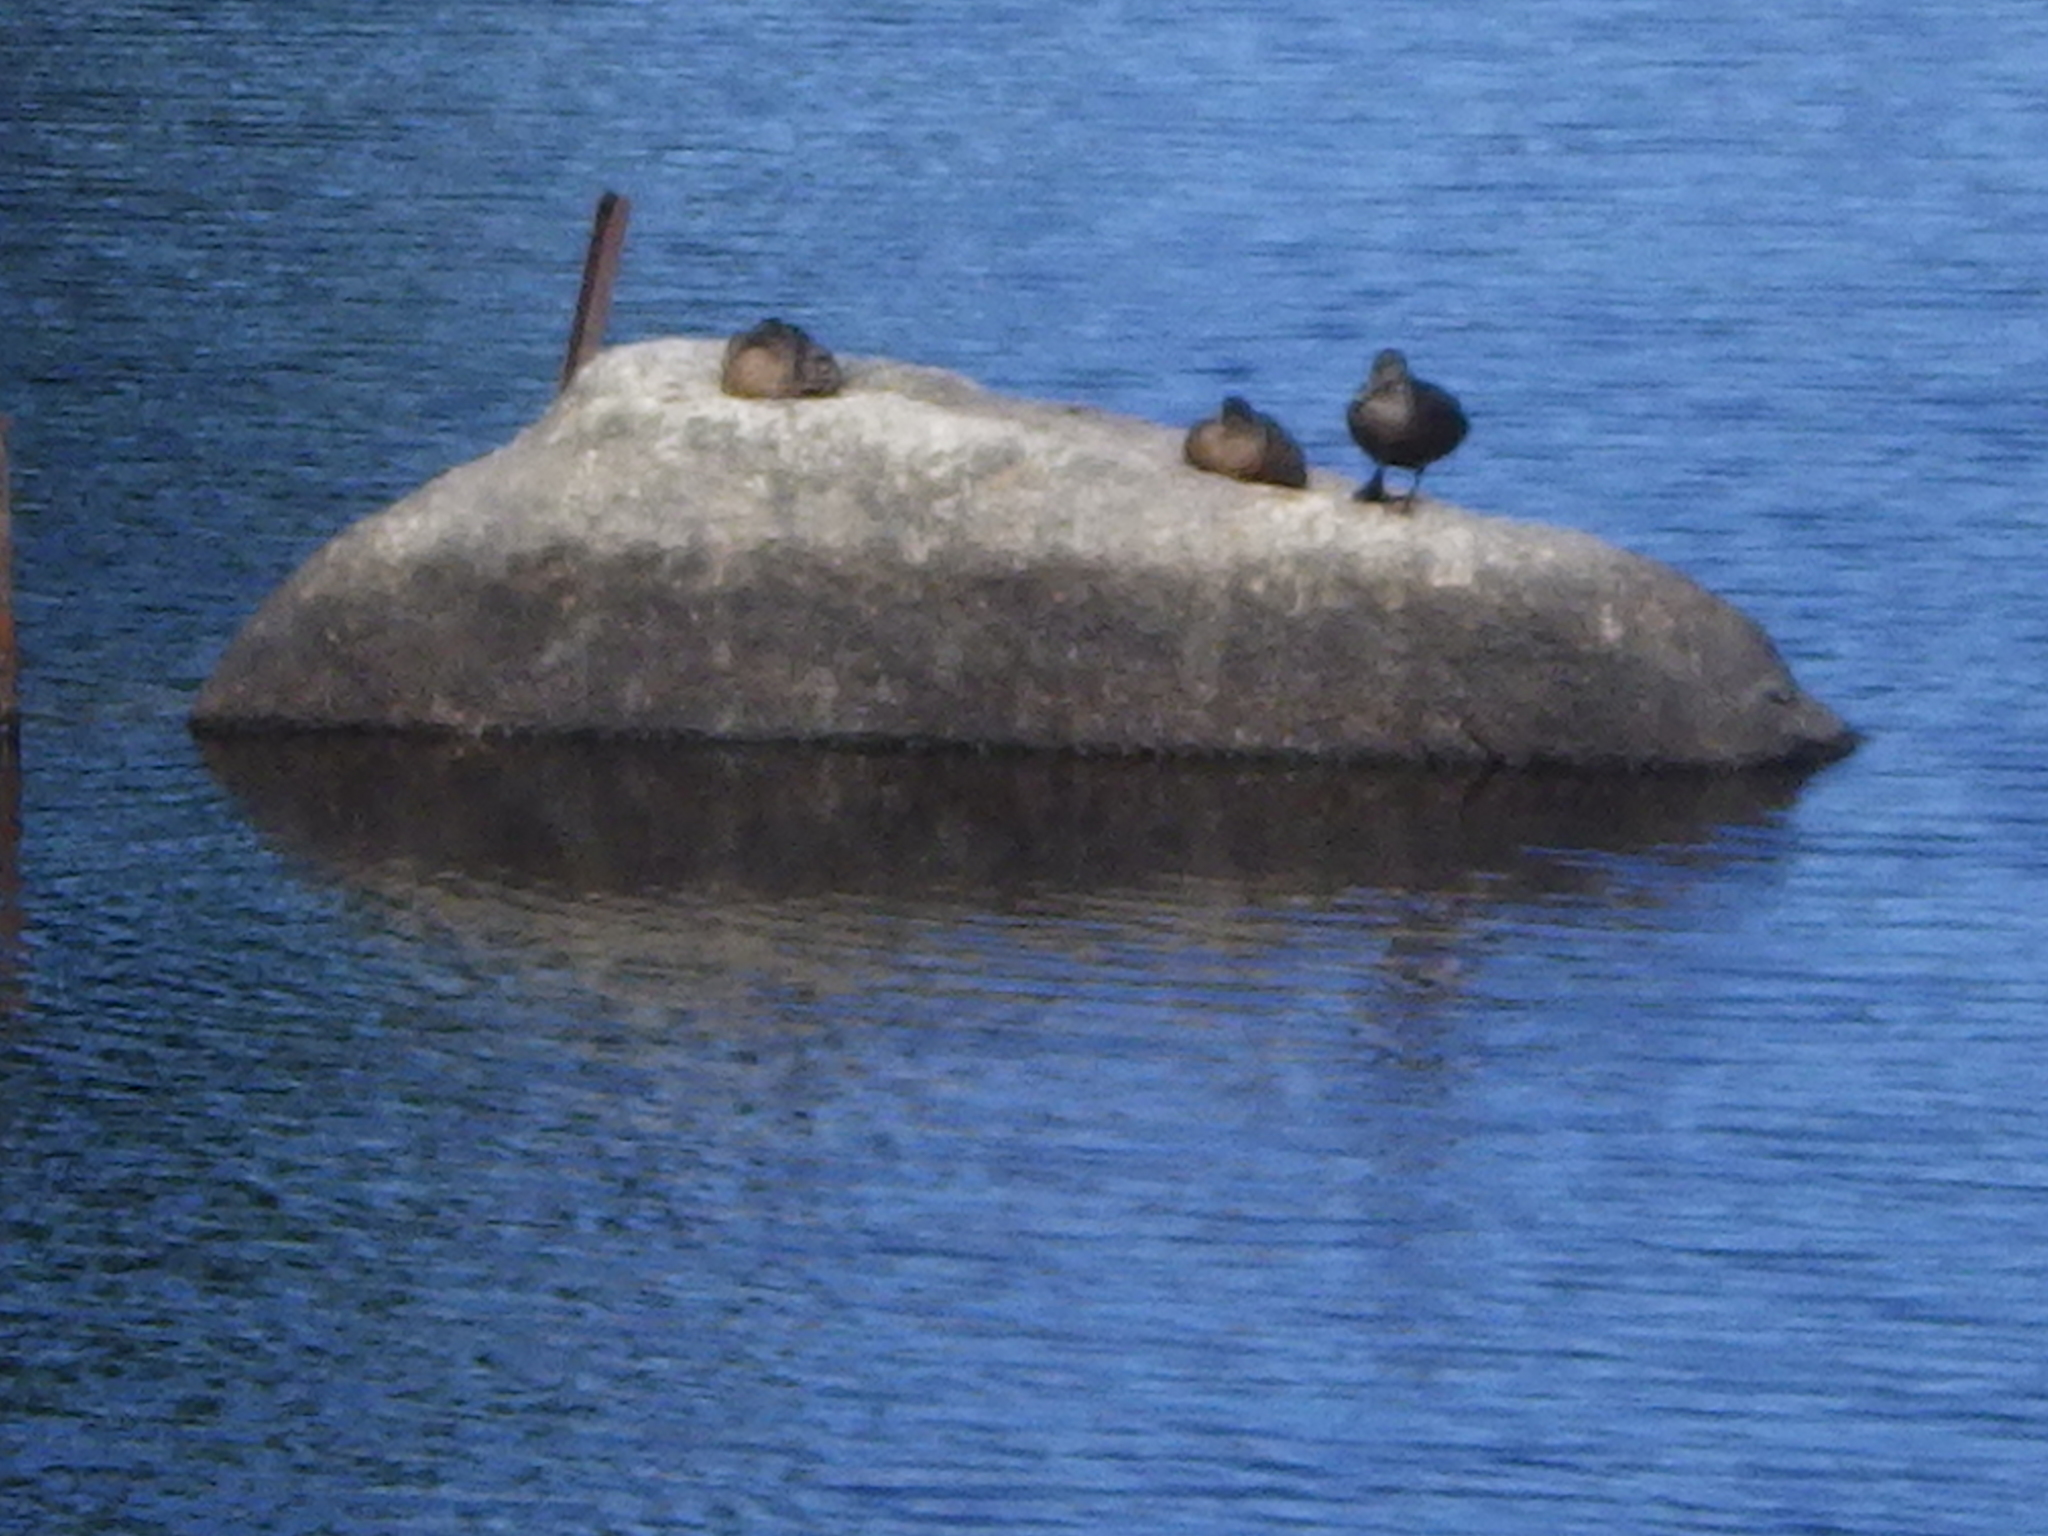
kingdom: Animalia
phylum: Chordata
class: Aves
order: Anseriformes
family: Anatidae
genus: Anas
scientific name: Anas rubripes
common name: American black duck
